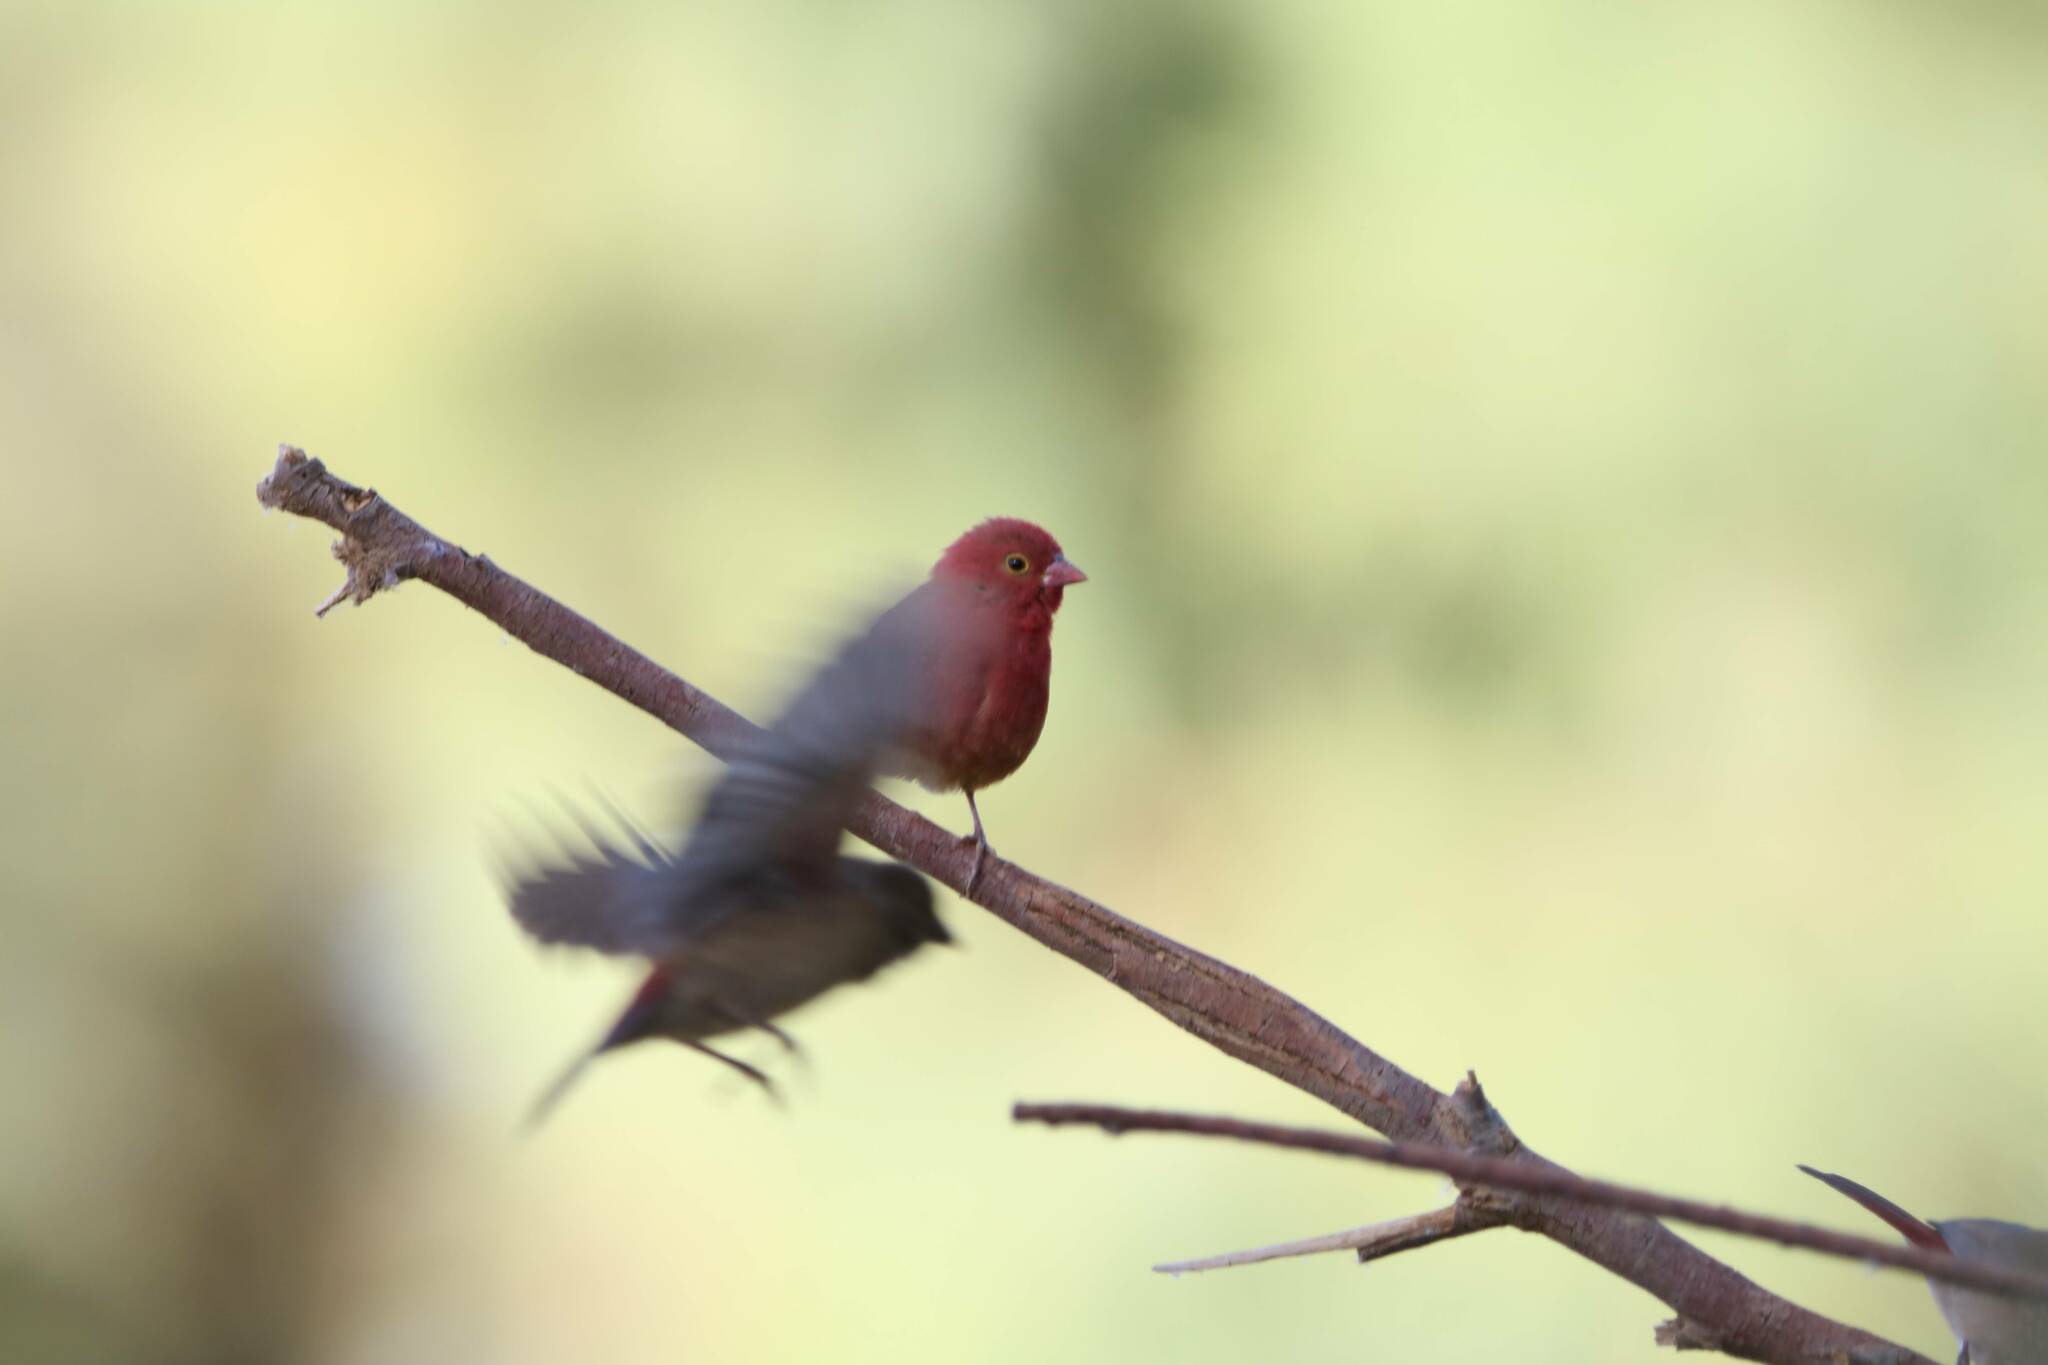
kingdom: Animalia
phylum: Chordata
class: Aves
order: Passeriformes
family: Estrildidae
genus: Lagonosticta
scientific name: Lagonosticta senegala
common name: Red-billed firefinch
